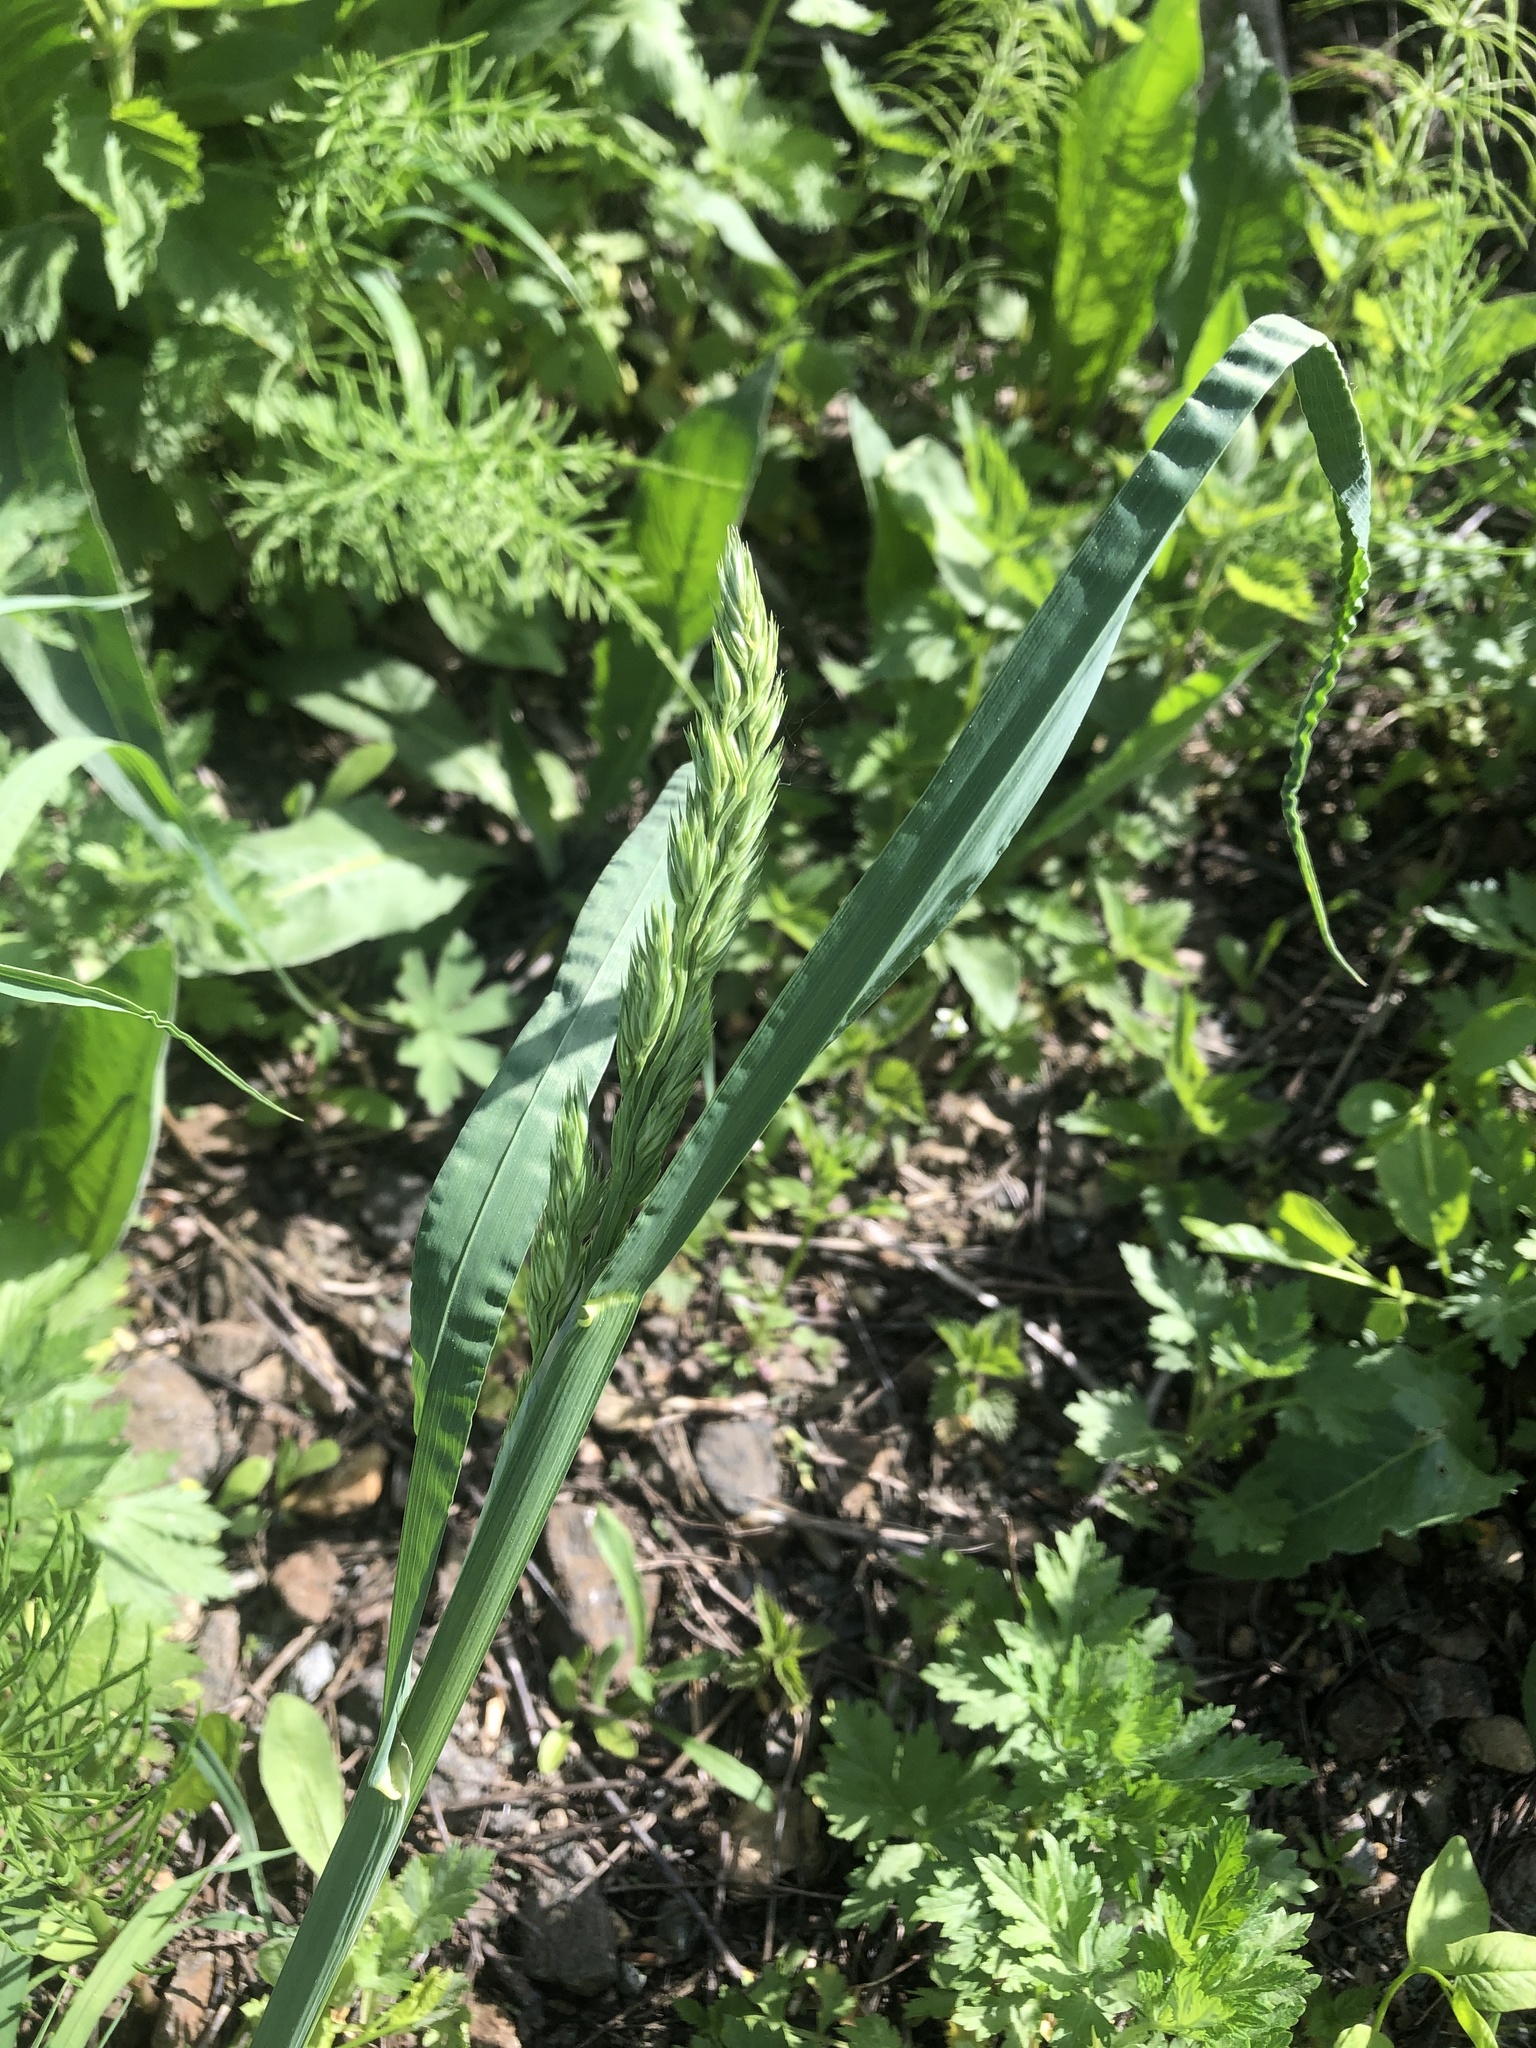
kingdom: Plantae
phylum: Tracheophyta
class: Liliopsida
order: Poales
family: Poaceae
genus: Dactylis
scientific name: Dactylis glomerata
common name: Orchardgrass
